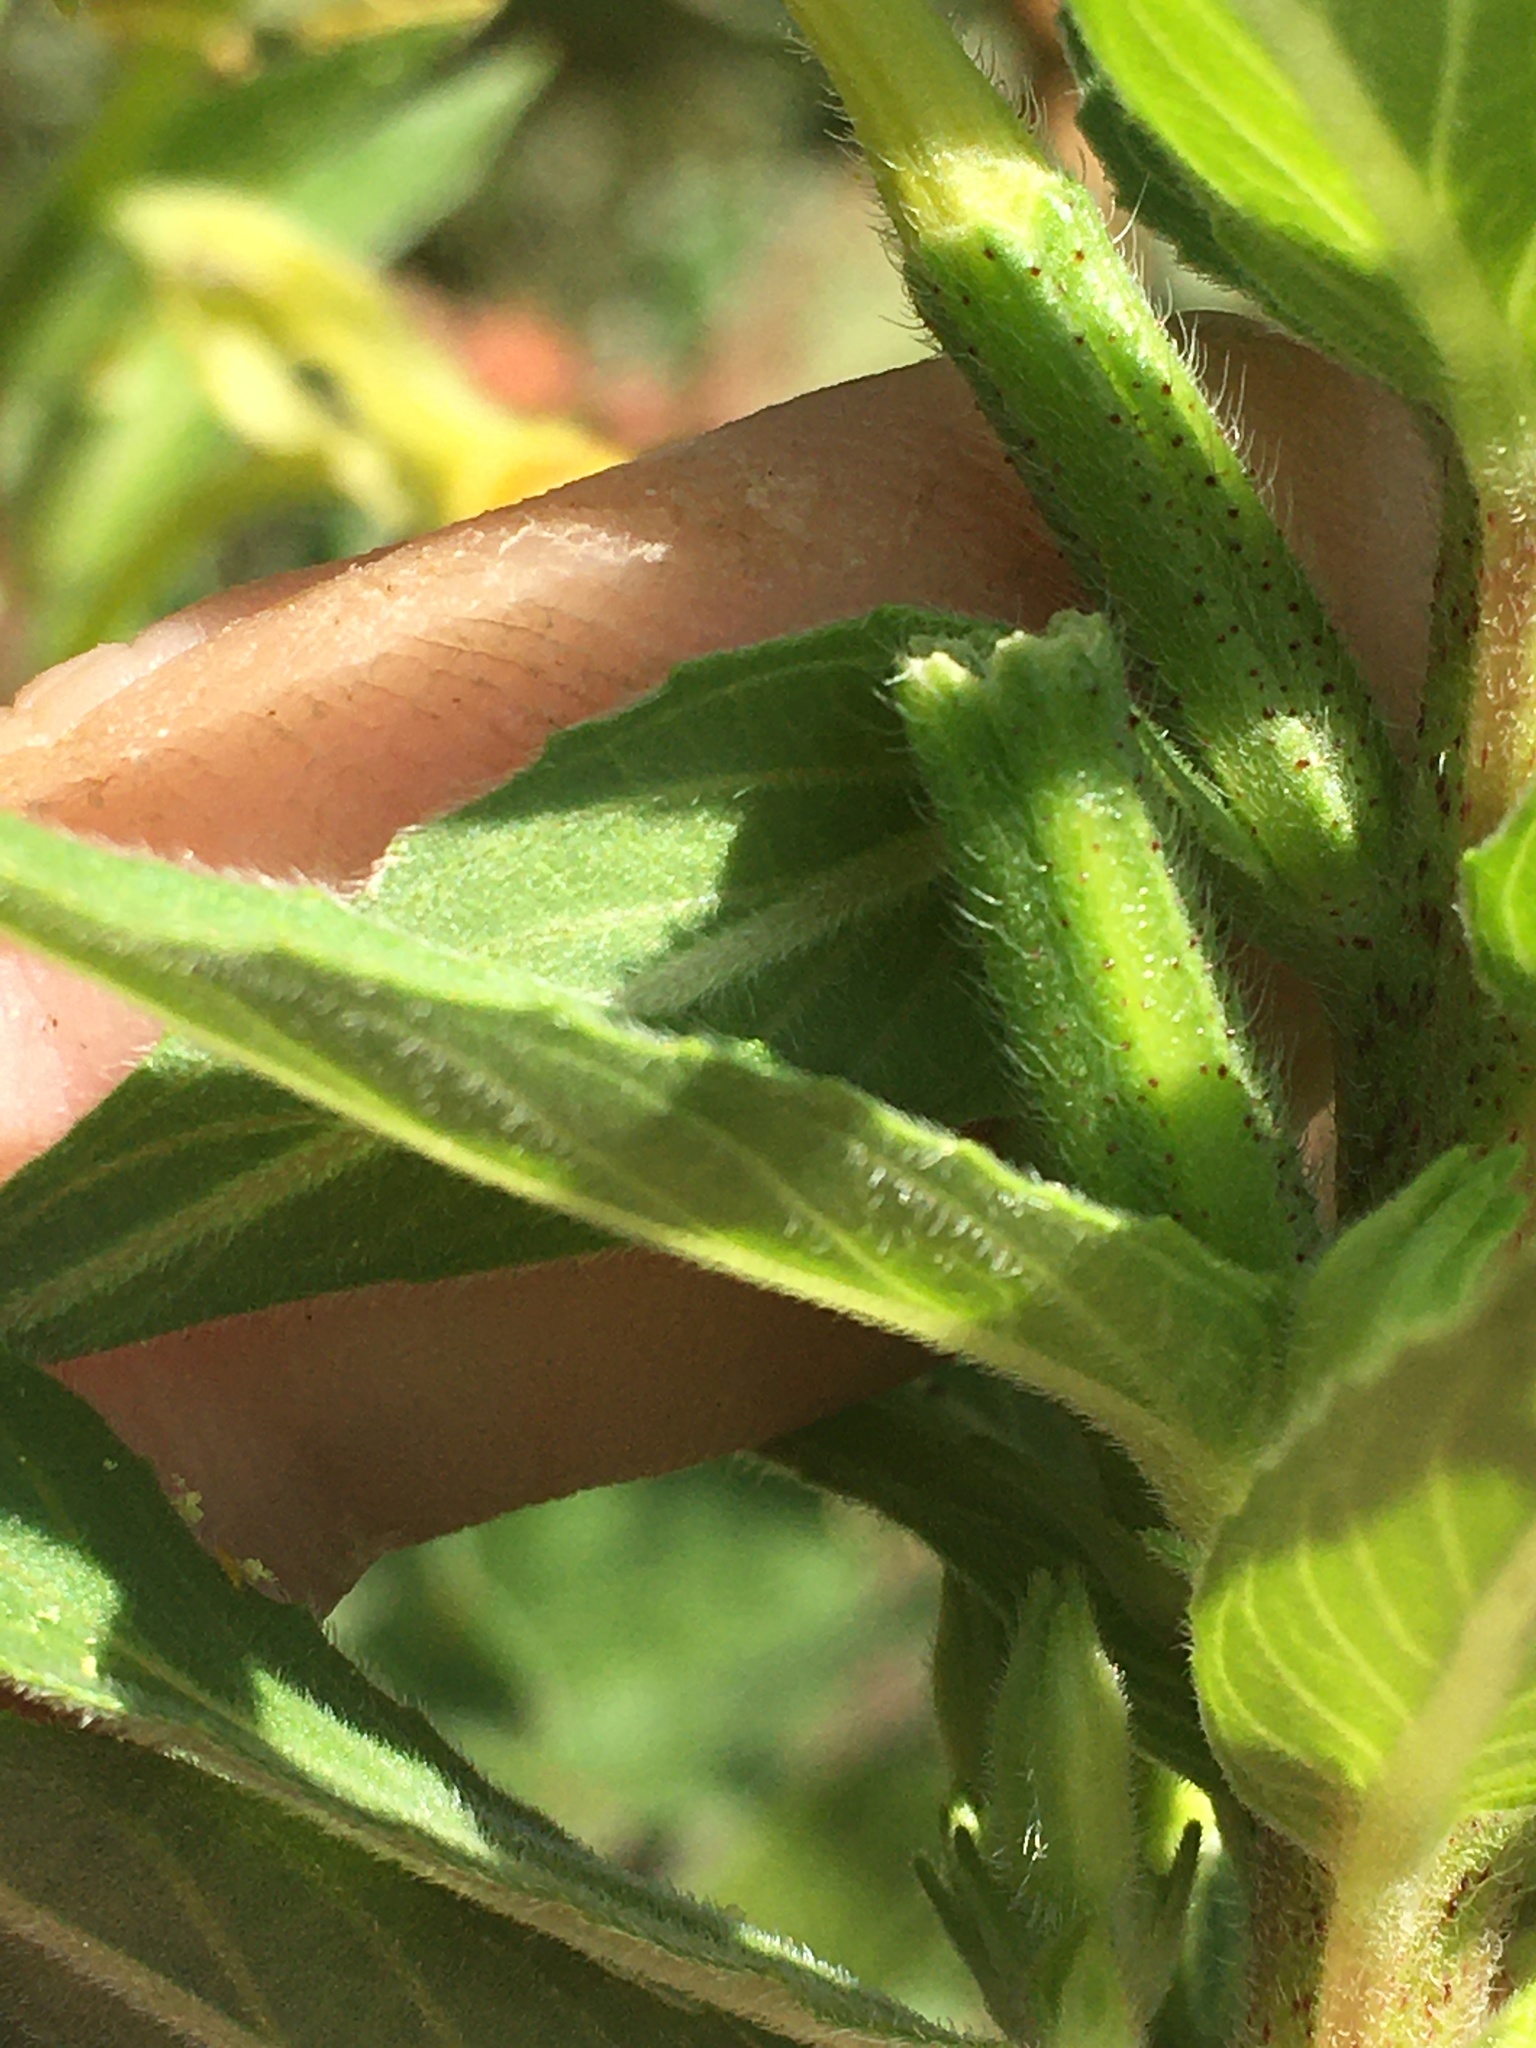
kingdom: Plantae
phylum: Tracheophyta
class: Magnoliopsida
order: Myrtales
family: Onagraceae
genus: Oenothera
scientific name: Oenothera biennis
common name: Common evening-primrose
